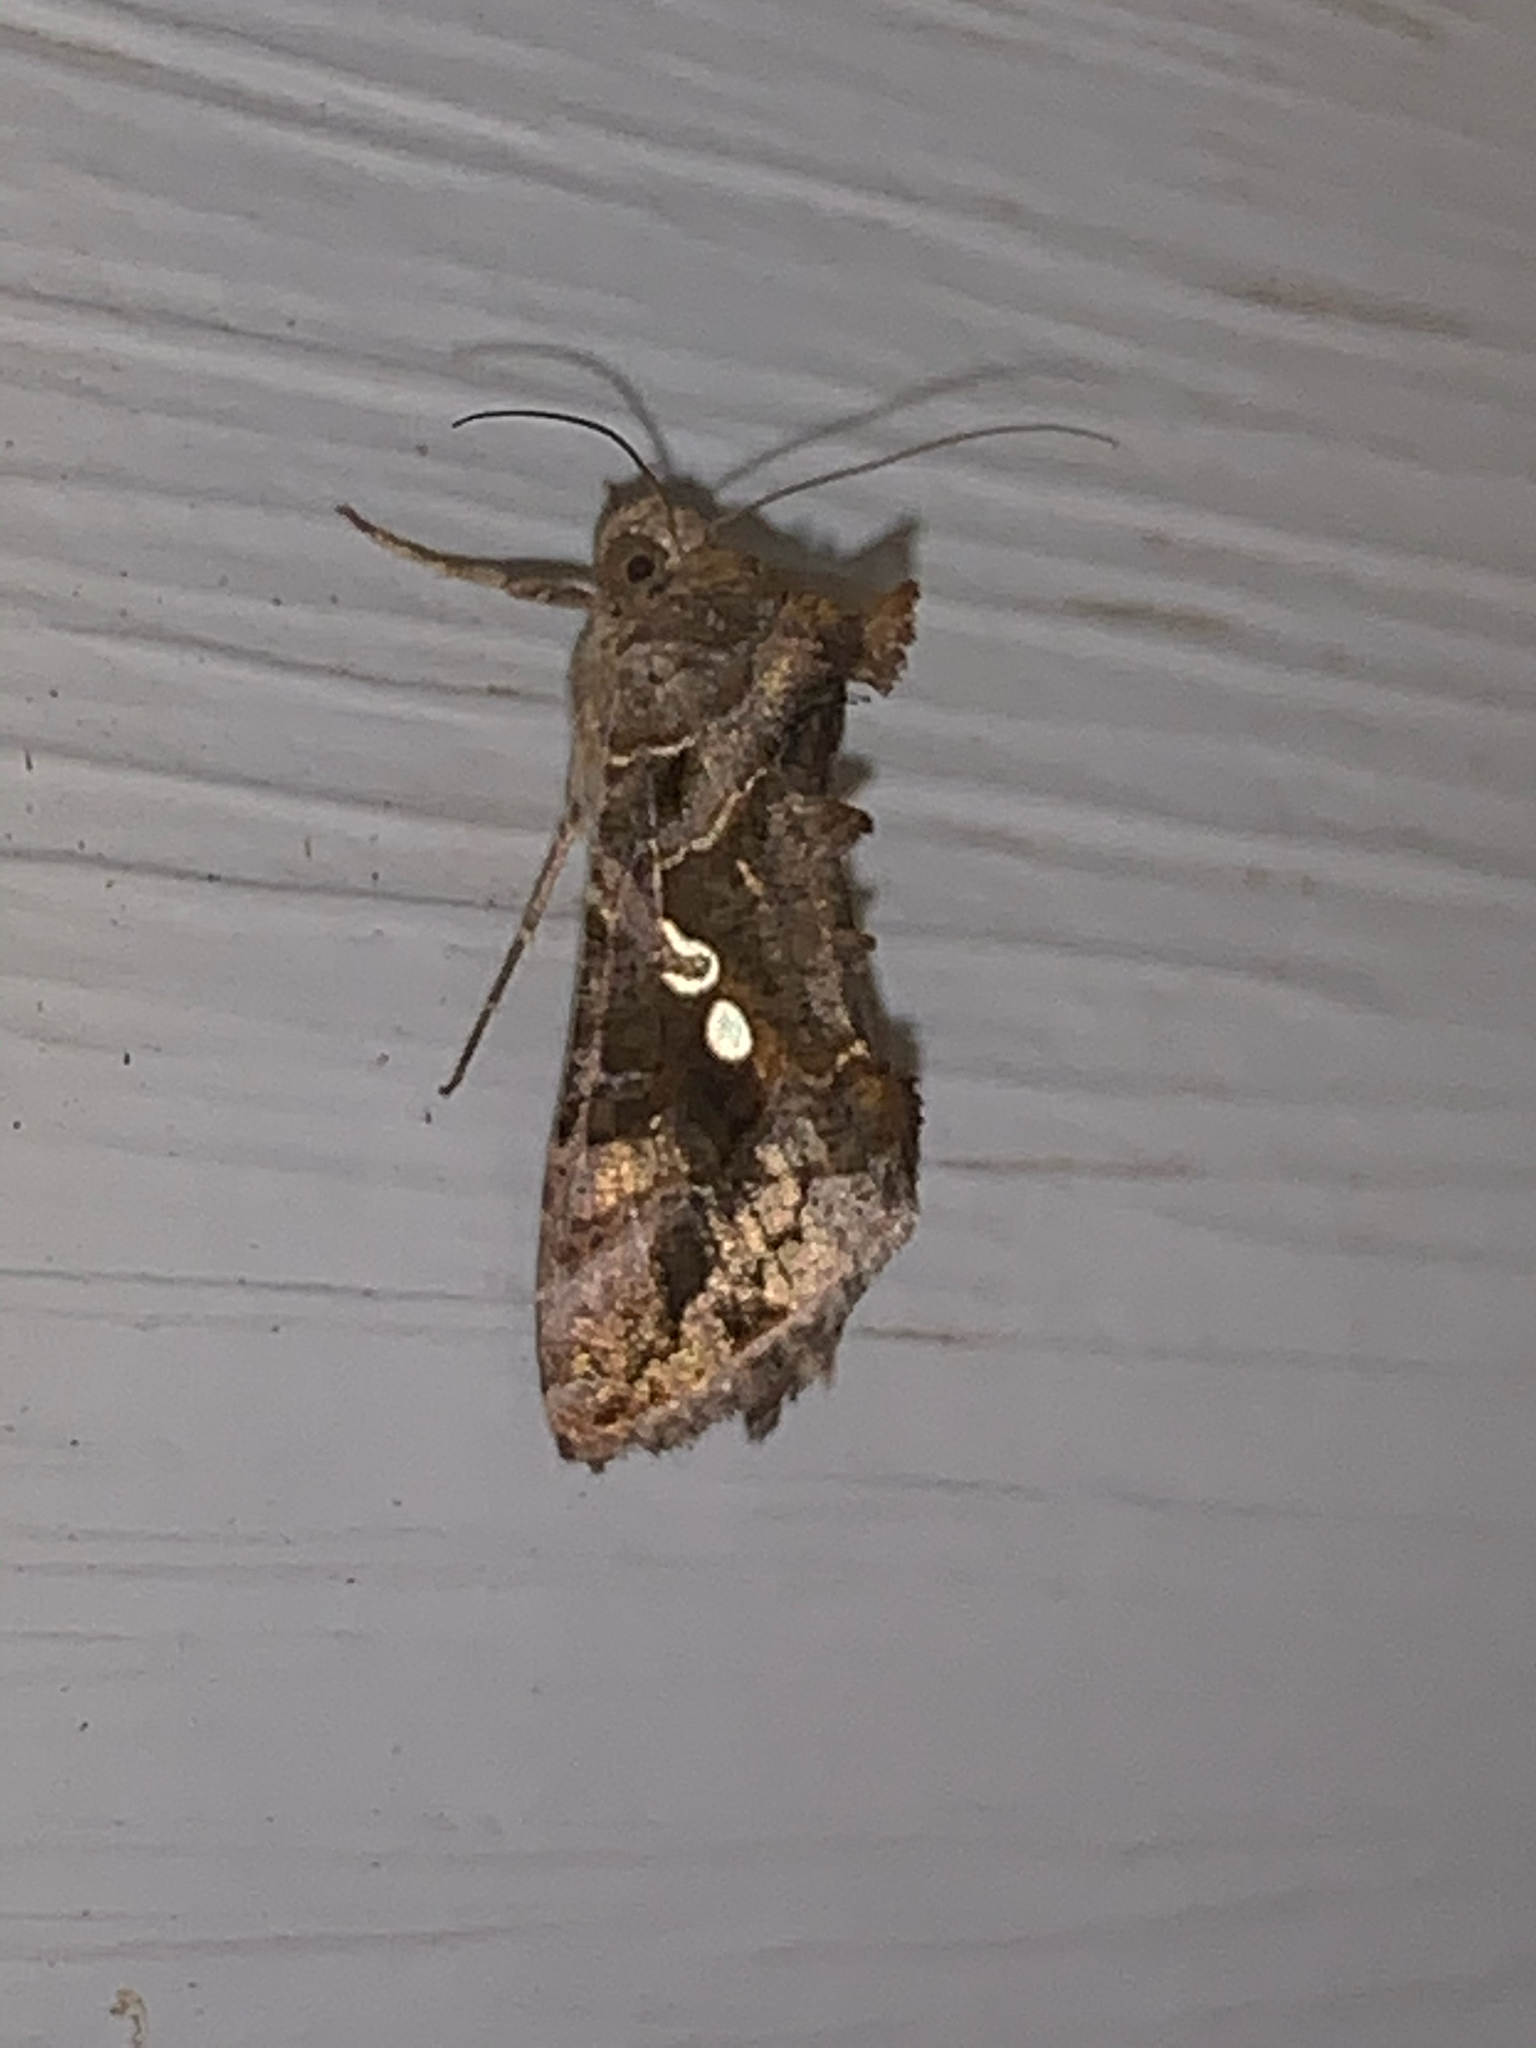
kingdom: Animalia
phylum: Arthropoda
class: Insecta
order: Lepidoptera
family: Noctuidae
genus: Chrysodeixis
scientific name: Chrysodeixis includens
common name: Cutworm moth
